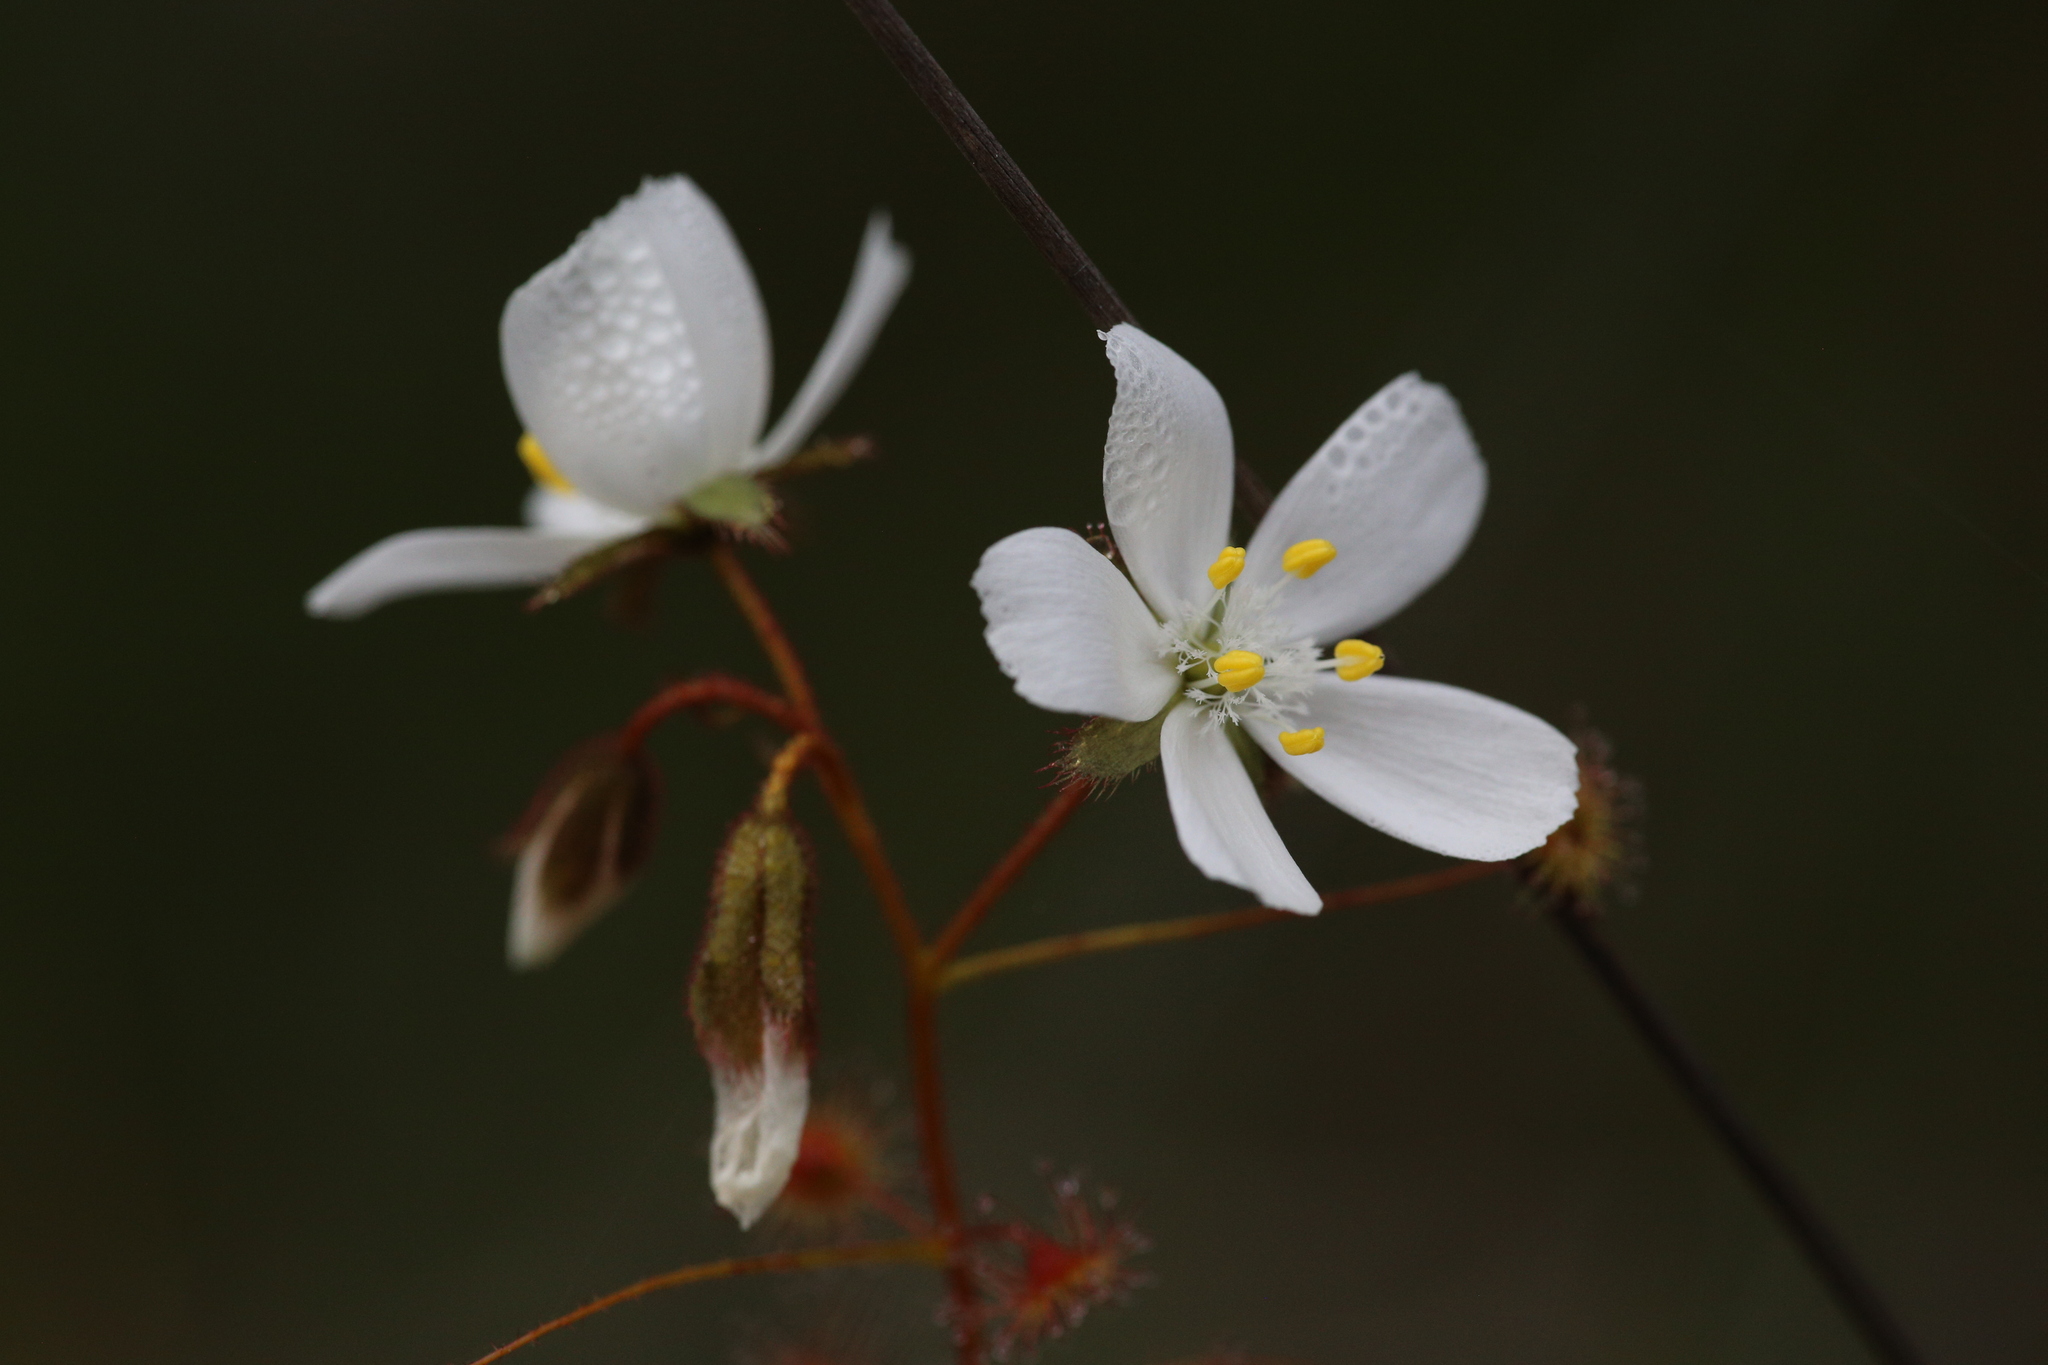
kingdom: Plantae
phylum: Tracheophyta
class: Magnoliopsida
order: Caryophyllales
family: Droseraceae
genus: Drosera
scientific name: Drosera macrantha
